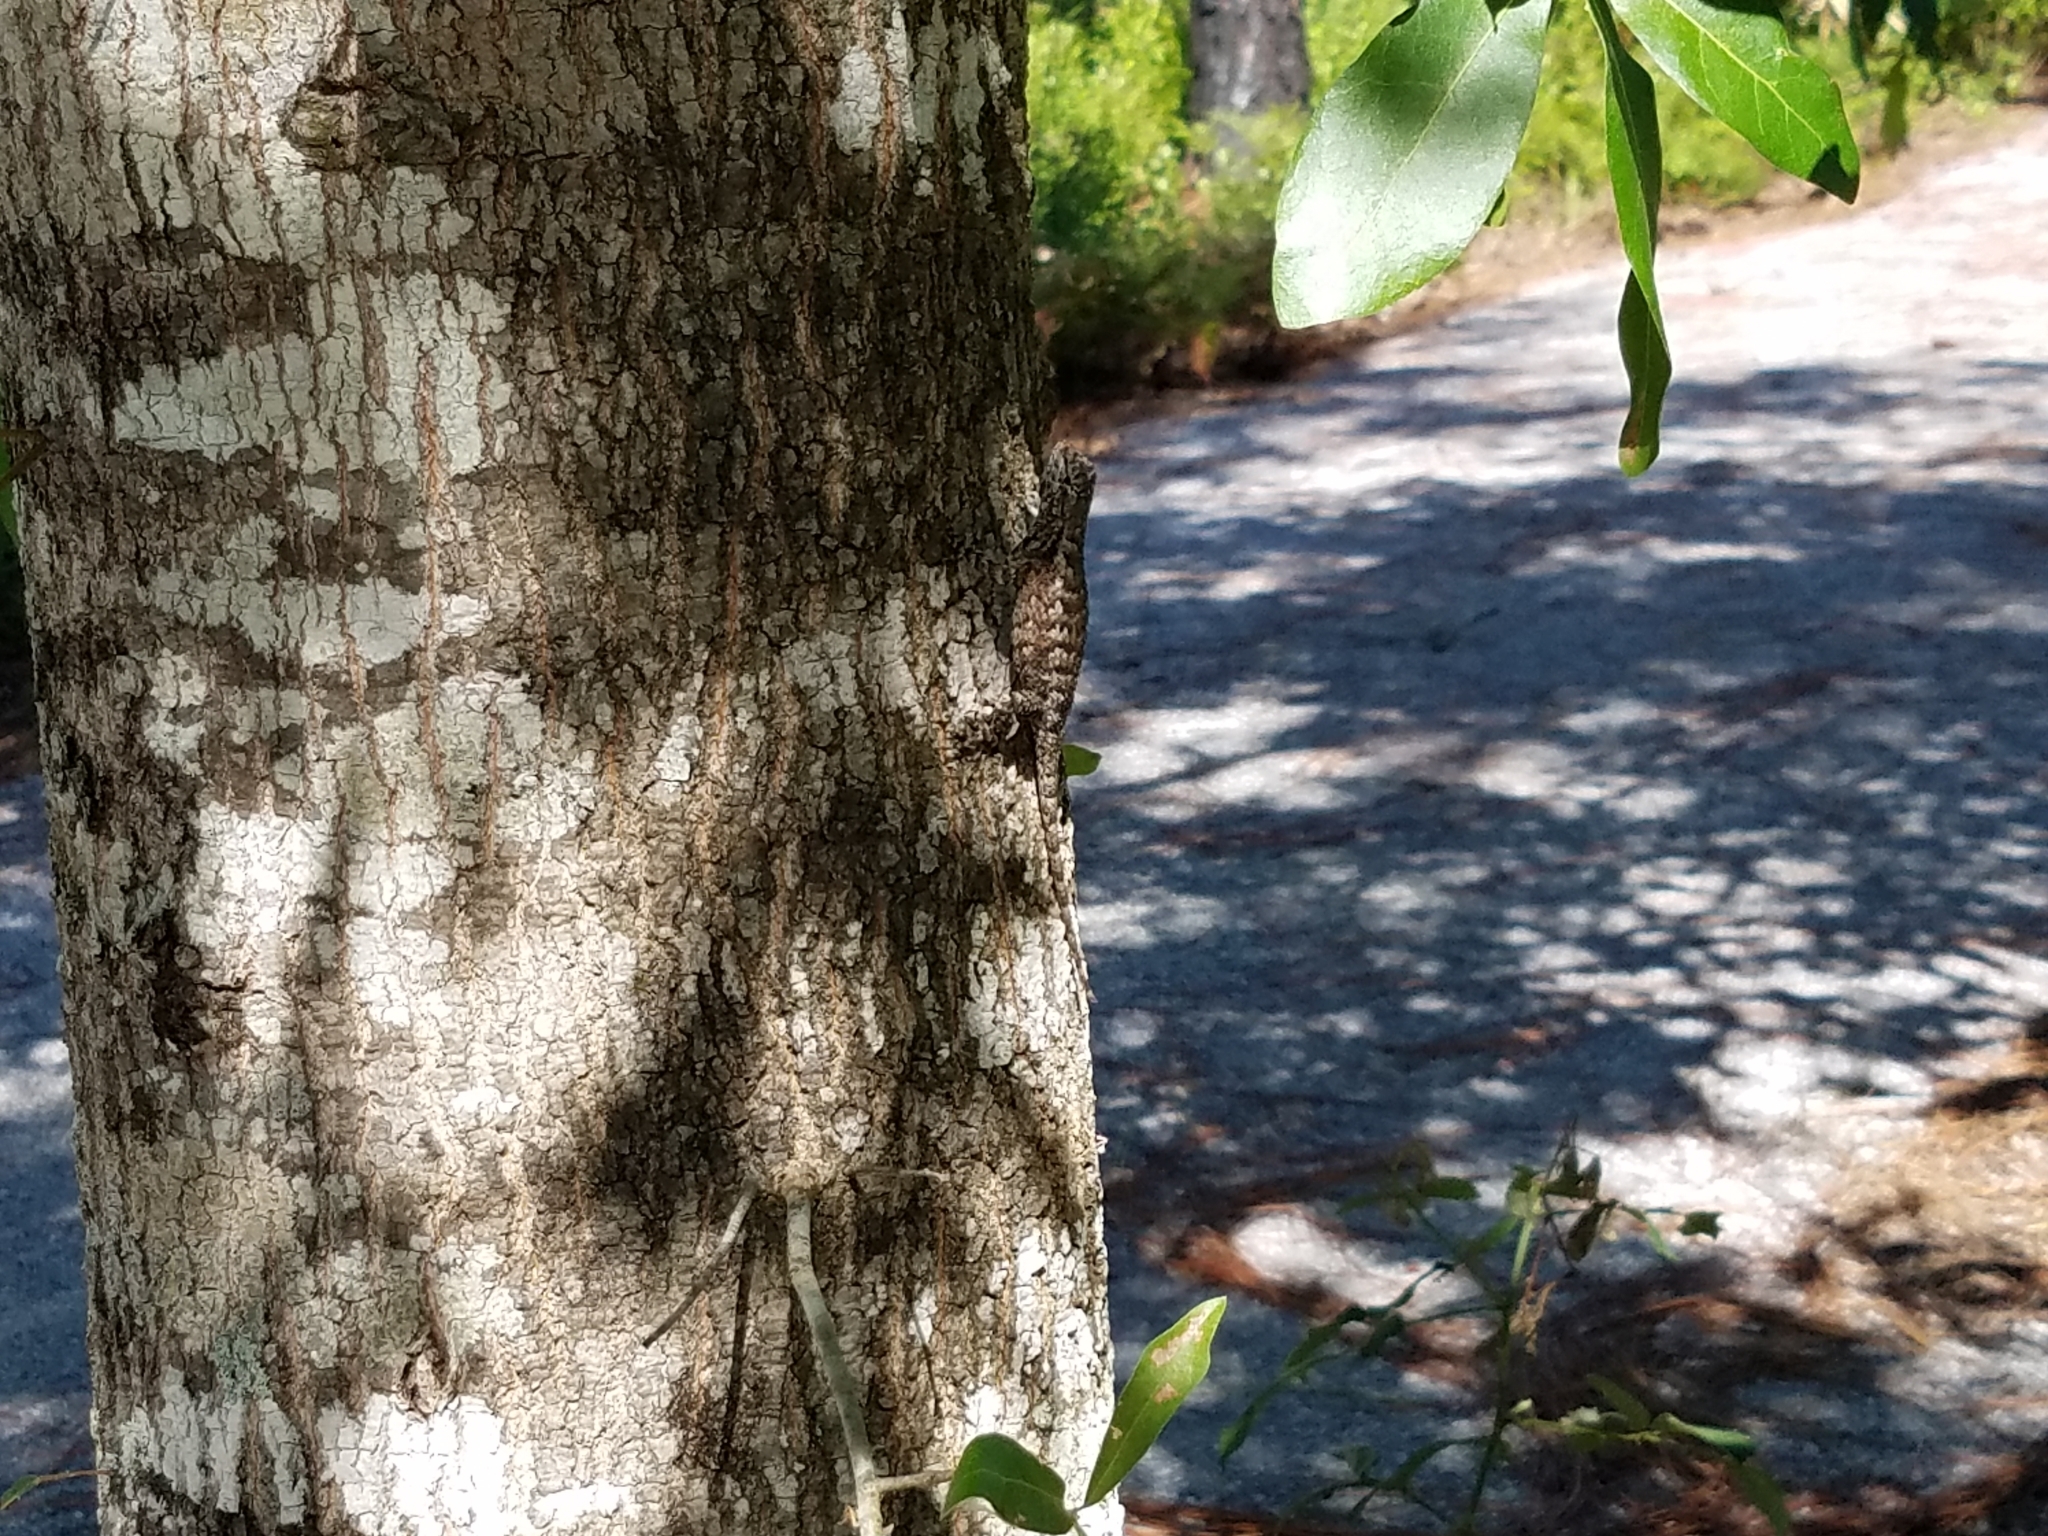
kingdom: Animalia
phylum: Chordata
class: Squamata
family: Phrynosomatidae
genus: Sceloporus
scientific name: Sceloporus undulatus
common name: Eastern fence lizard
